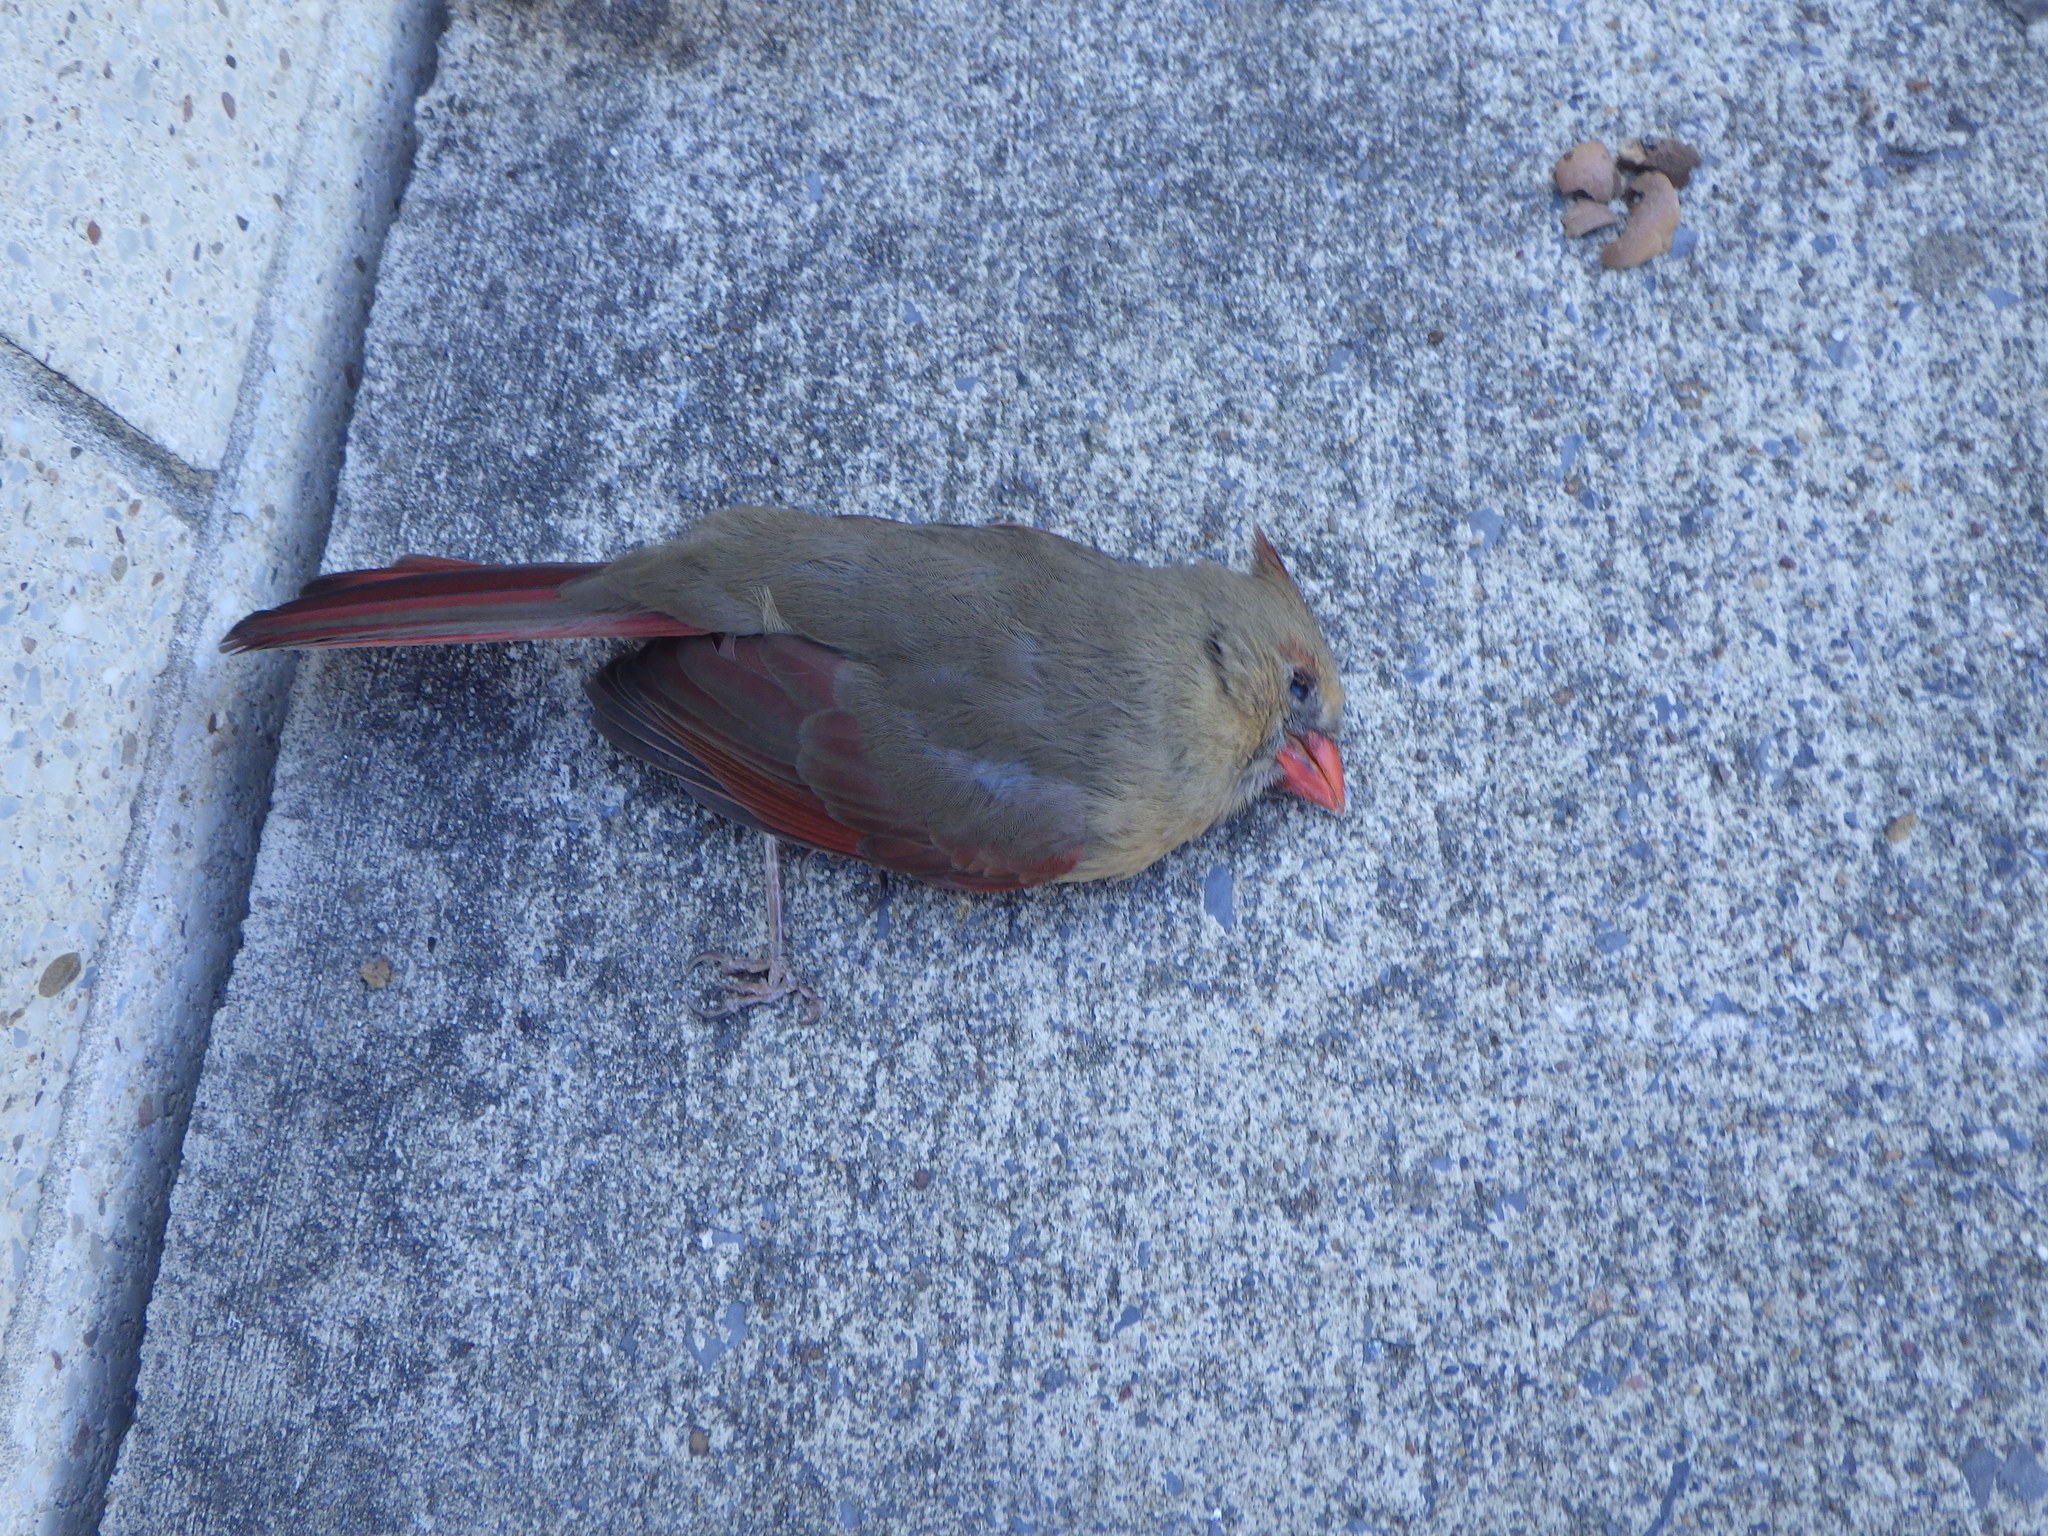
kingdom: Animalia
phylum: Chordata
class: Aves
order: Passeriformes
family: Cardinalidae
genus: Cardinalis
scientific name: Cardinalis cardinalis
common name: Northern cardinal
